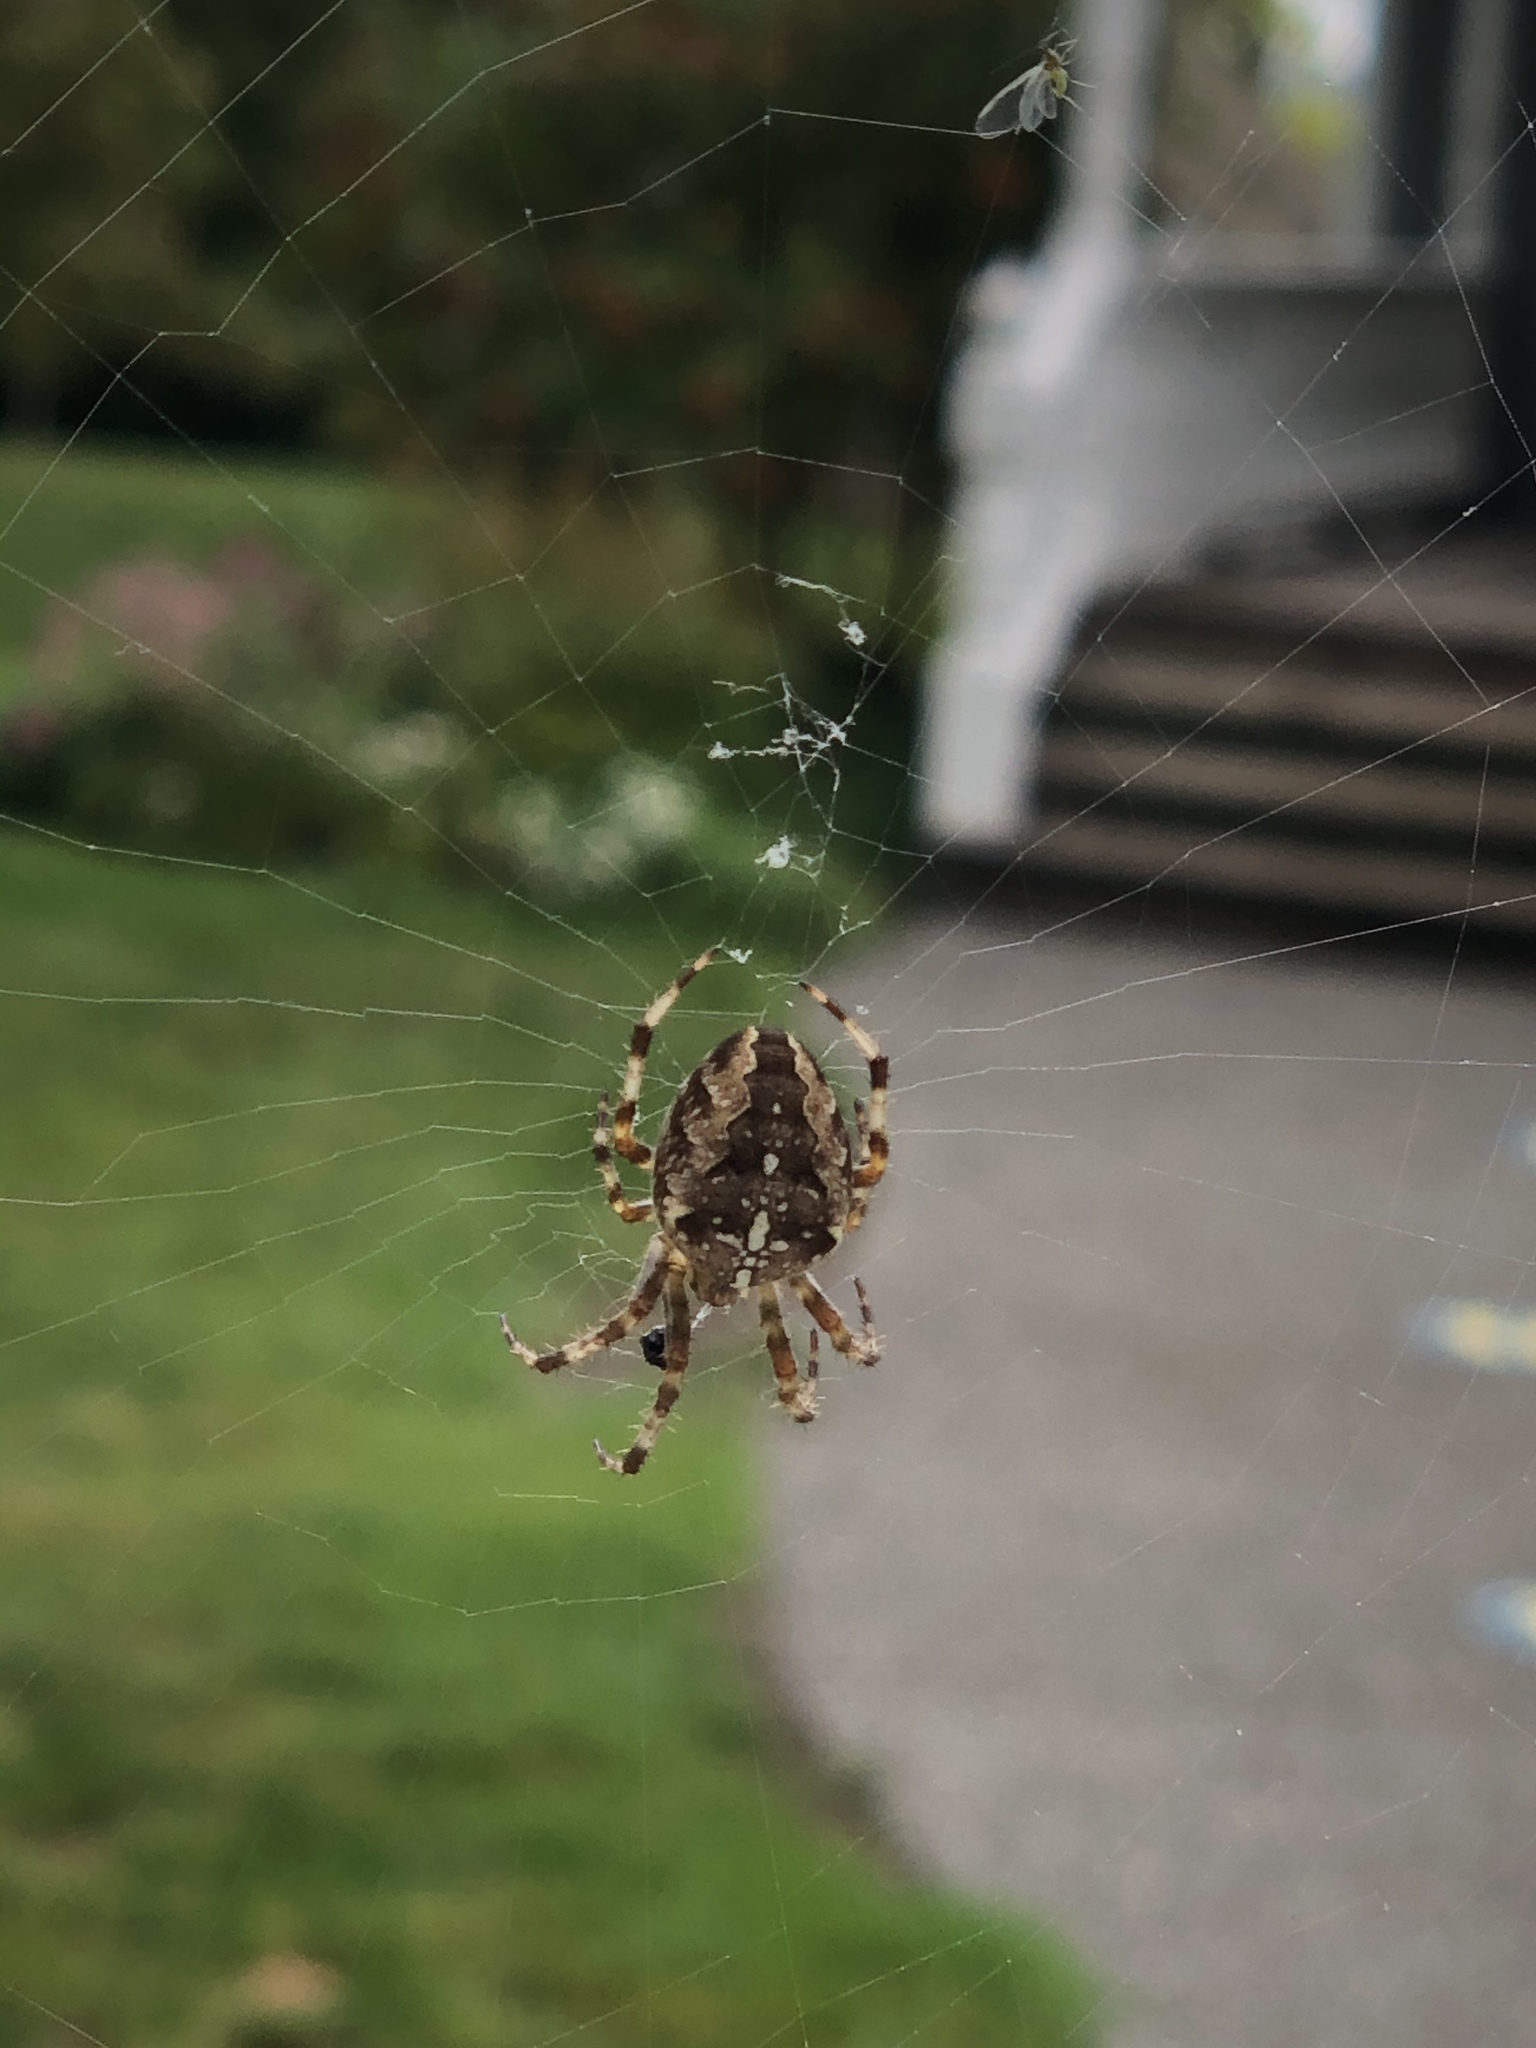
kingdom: Animalia
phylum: Arthropoda
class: Arachnida
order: Araneae
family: Araneidae
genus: Araneus
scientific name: Araneus diadematus
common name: Cross orbweaver
